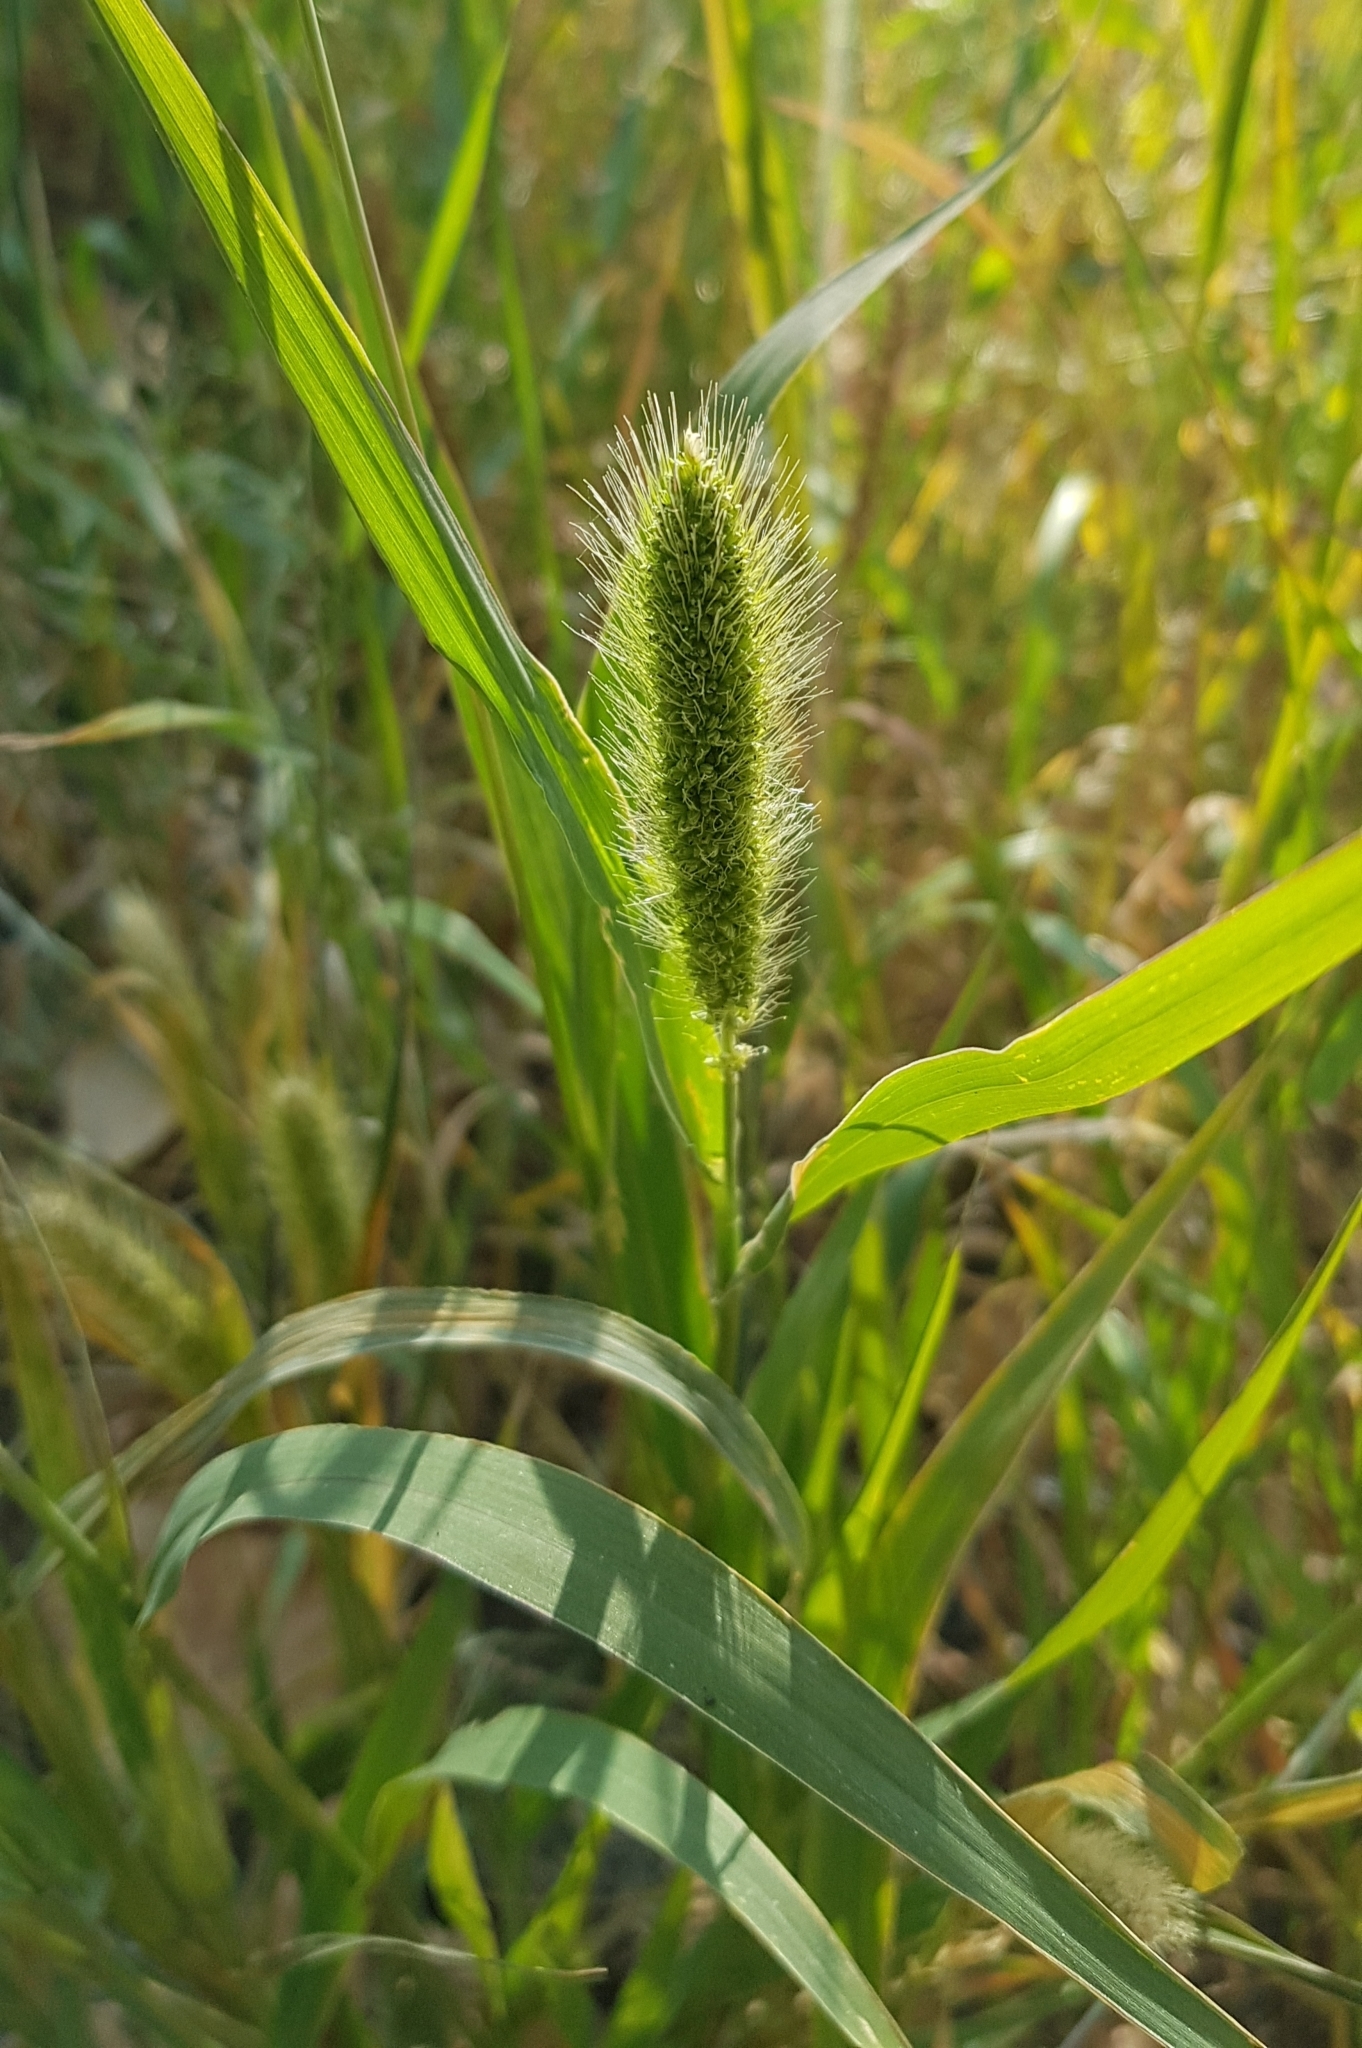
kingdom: Plantae
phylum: Tracheophyta
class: Liliopsida
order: Poales
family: Poaceae
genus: Setaria
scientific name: Setaria viridis
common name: Green bristlegrass
